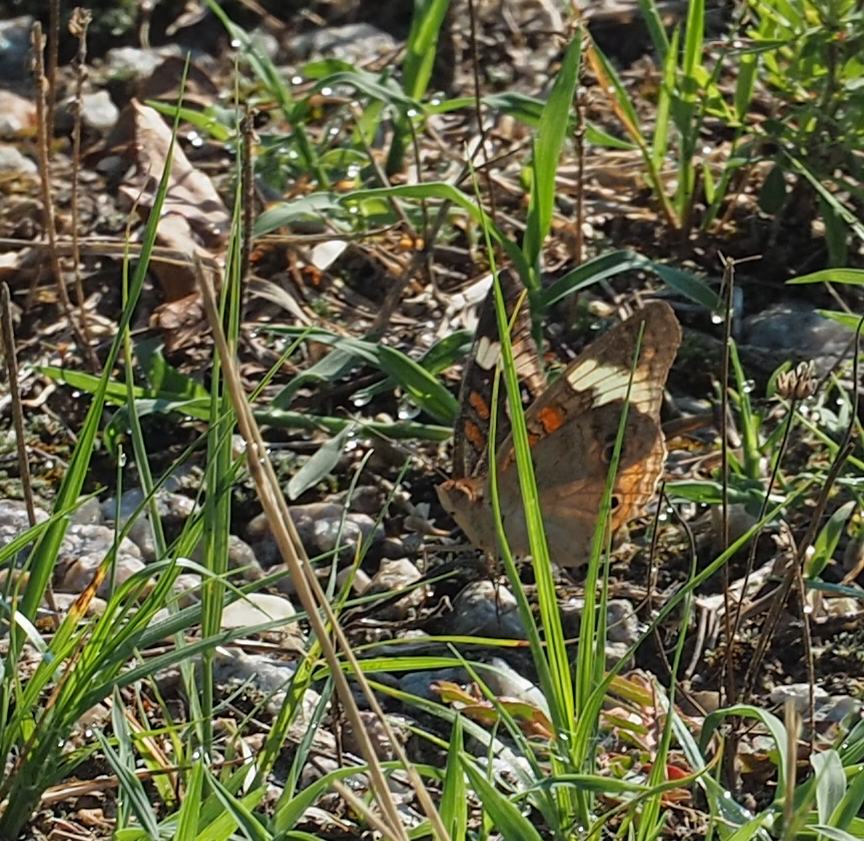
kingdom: Animalia
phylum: Arthropoda
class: Insecta
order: Lepidoptera
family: Nymphalidae
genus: Junonia
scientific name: Junonia coenia
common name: Common buckeye
